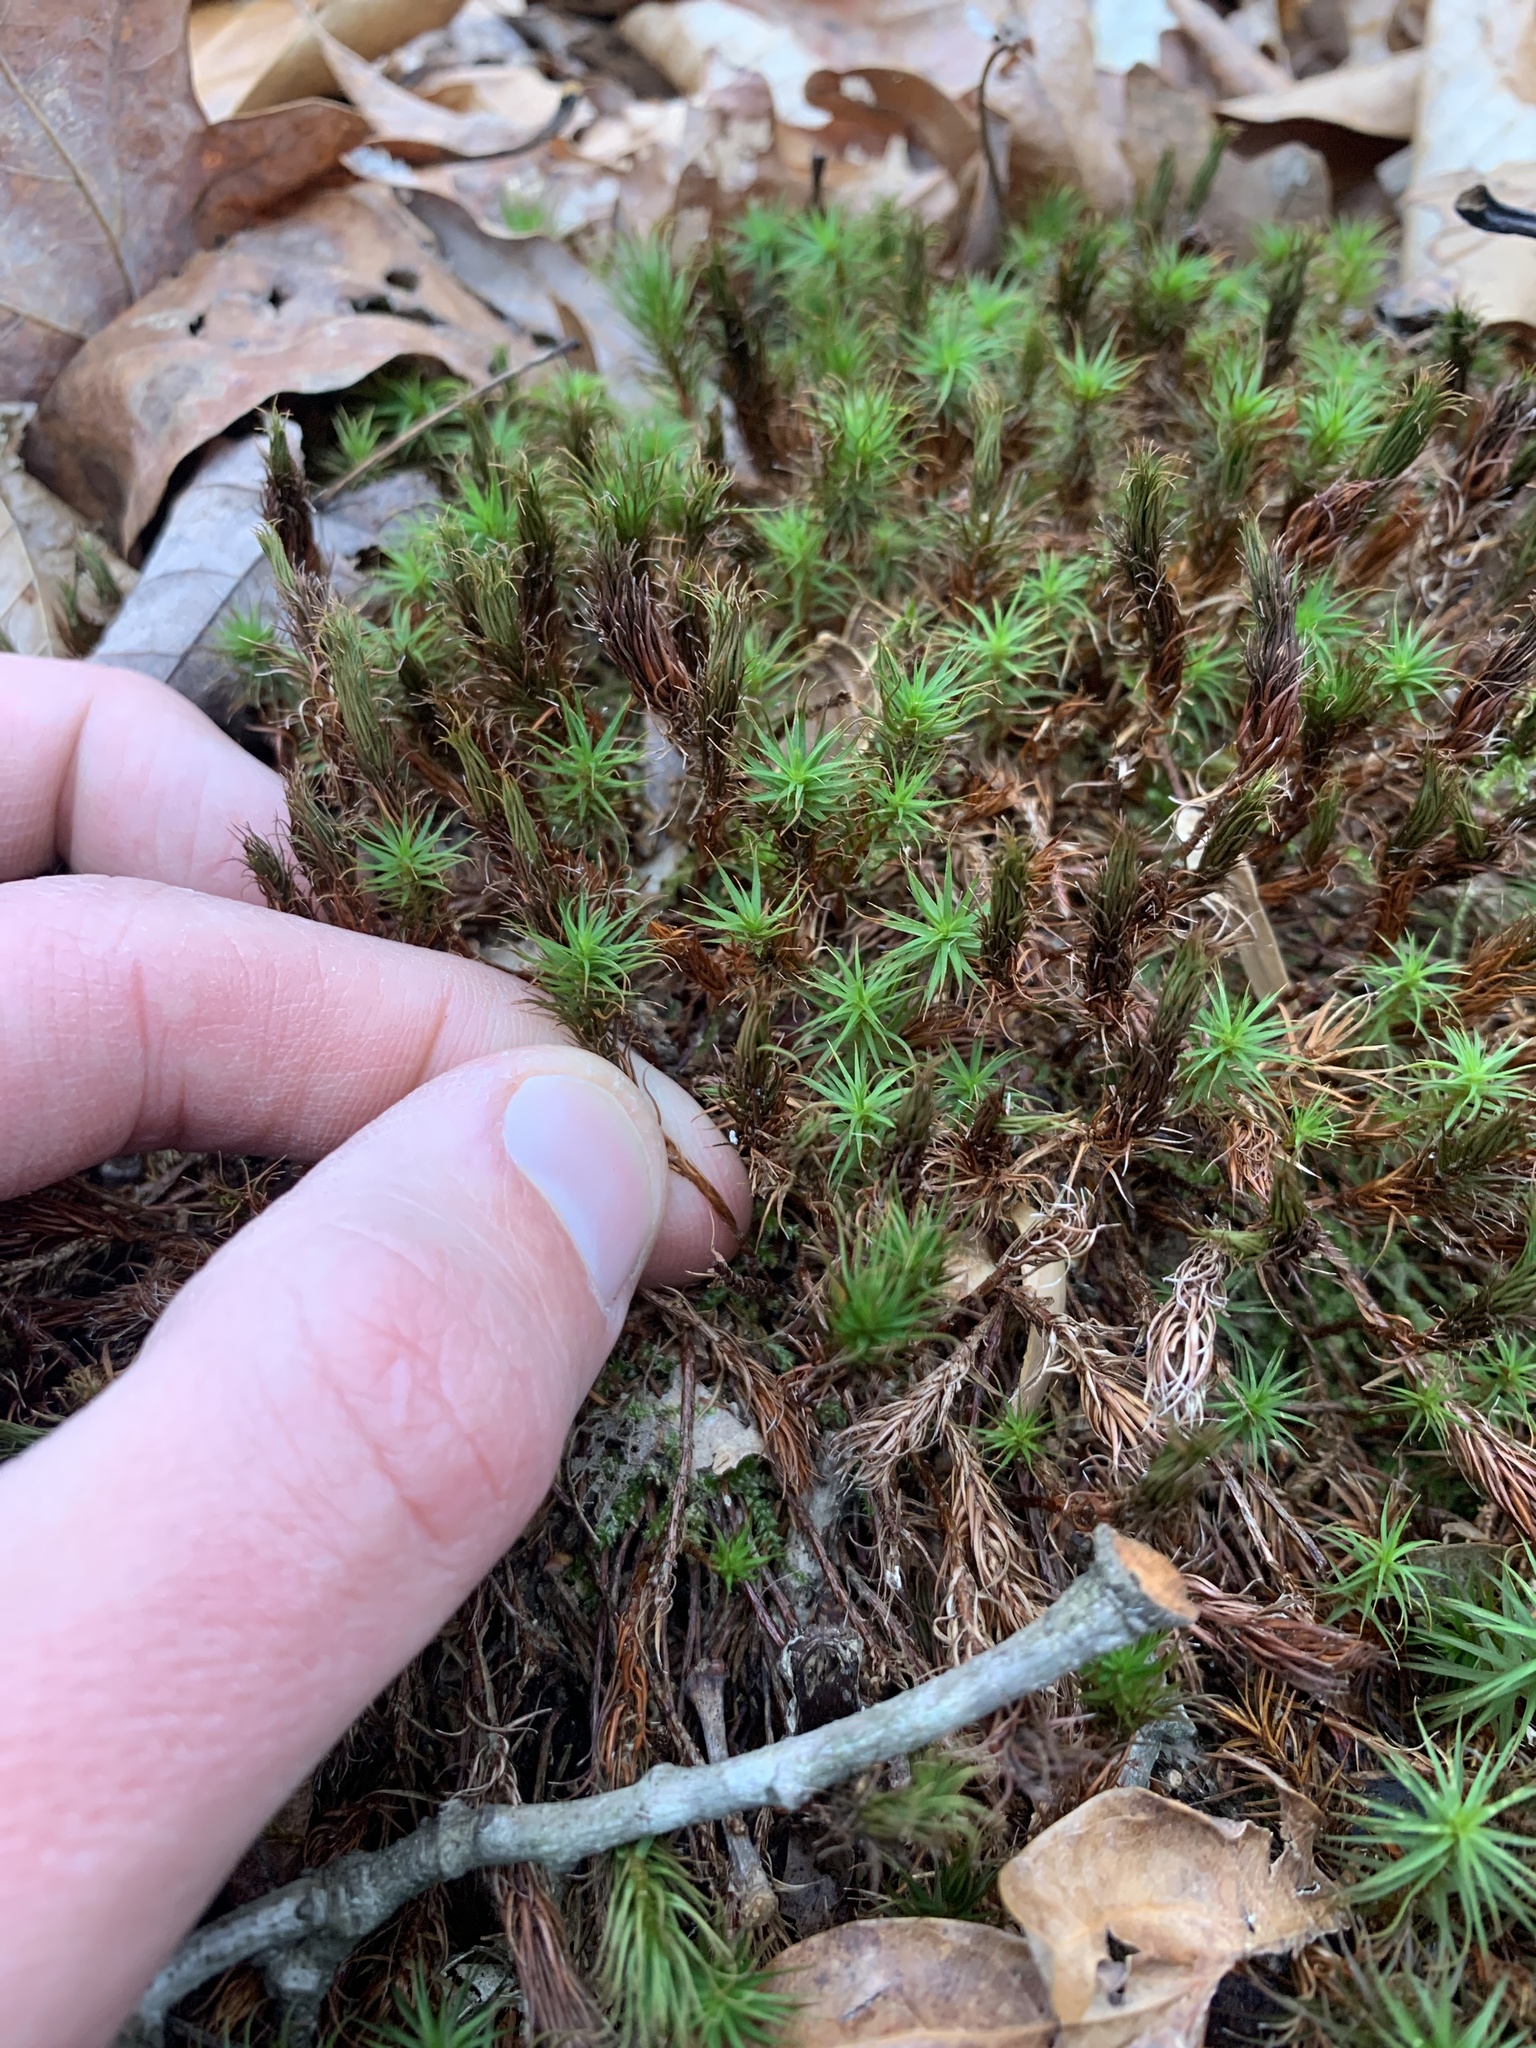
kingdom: Plantae
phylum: Bryophyta
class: Polytrichopsida
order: Polytrichales
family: Polytrichaceae
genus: Polytrichum
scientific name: Polytrichum juniperinum
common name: Juniper haircap moss
